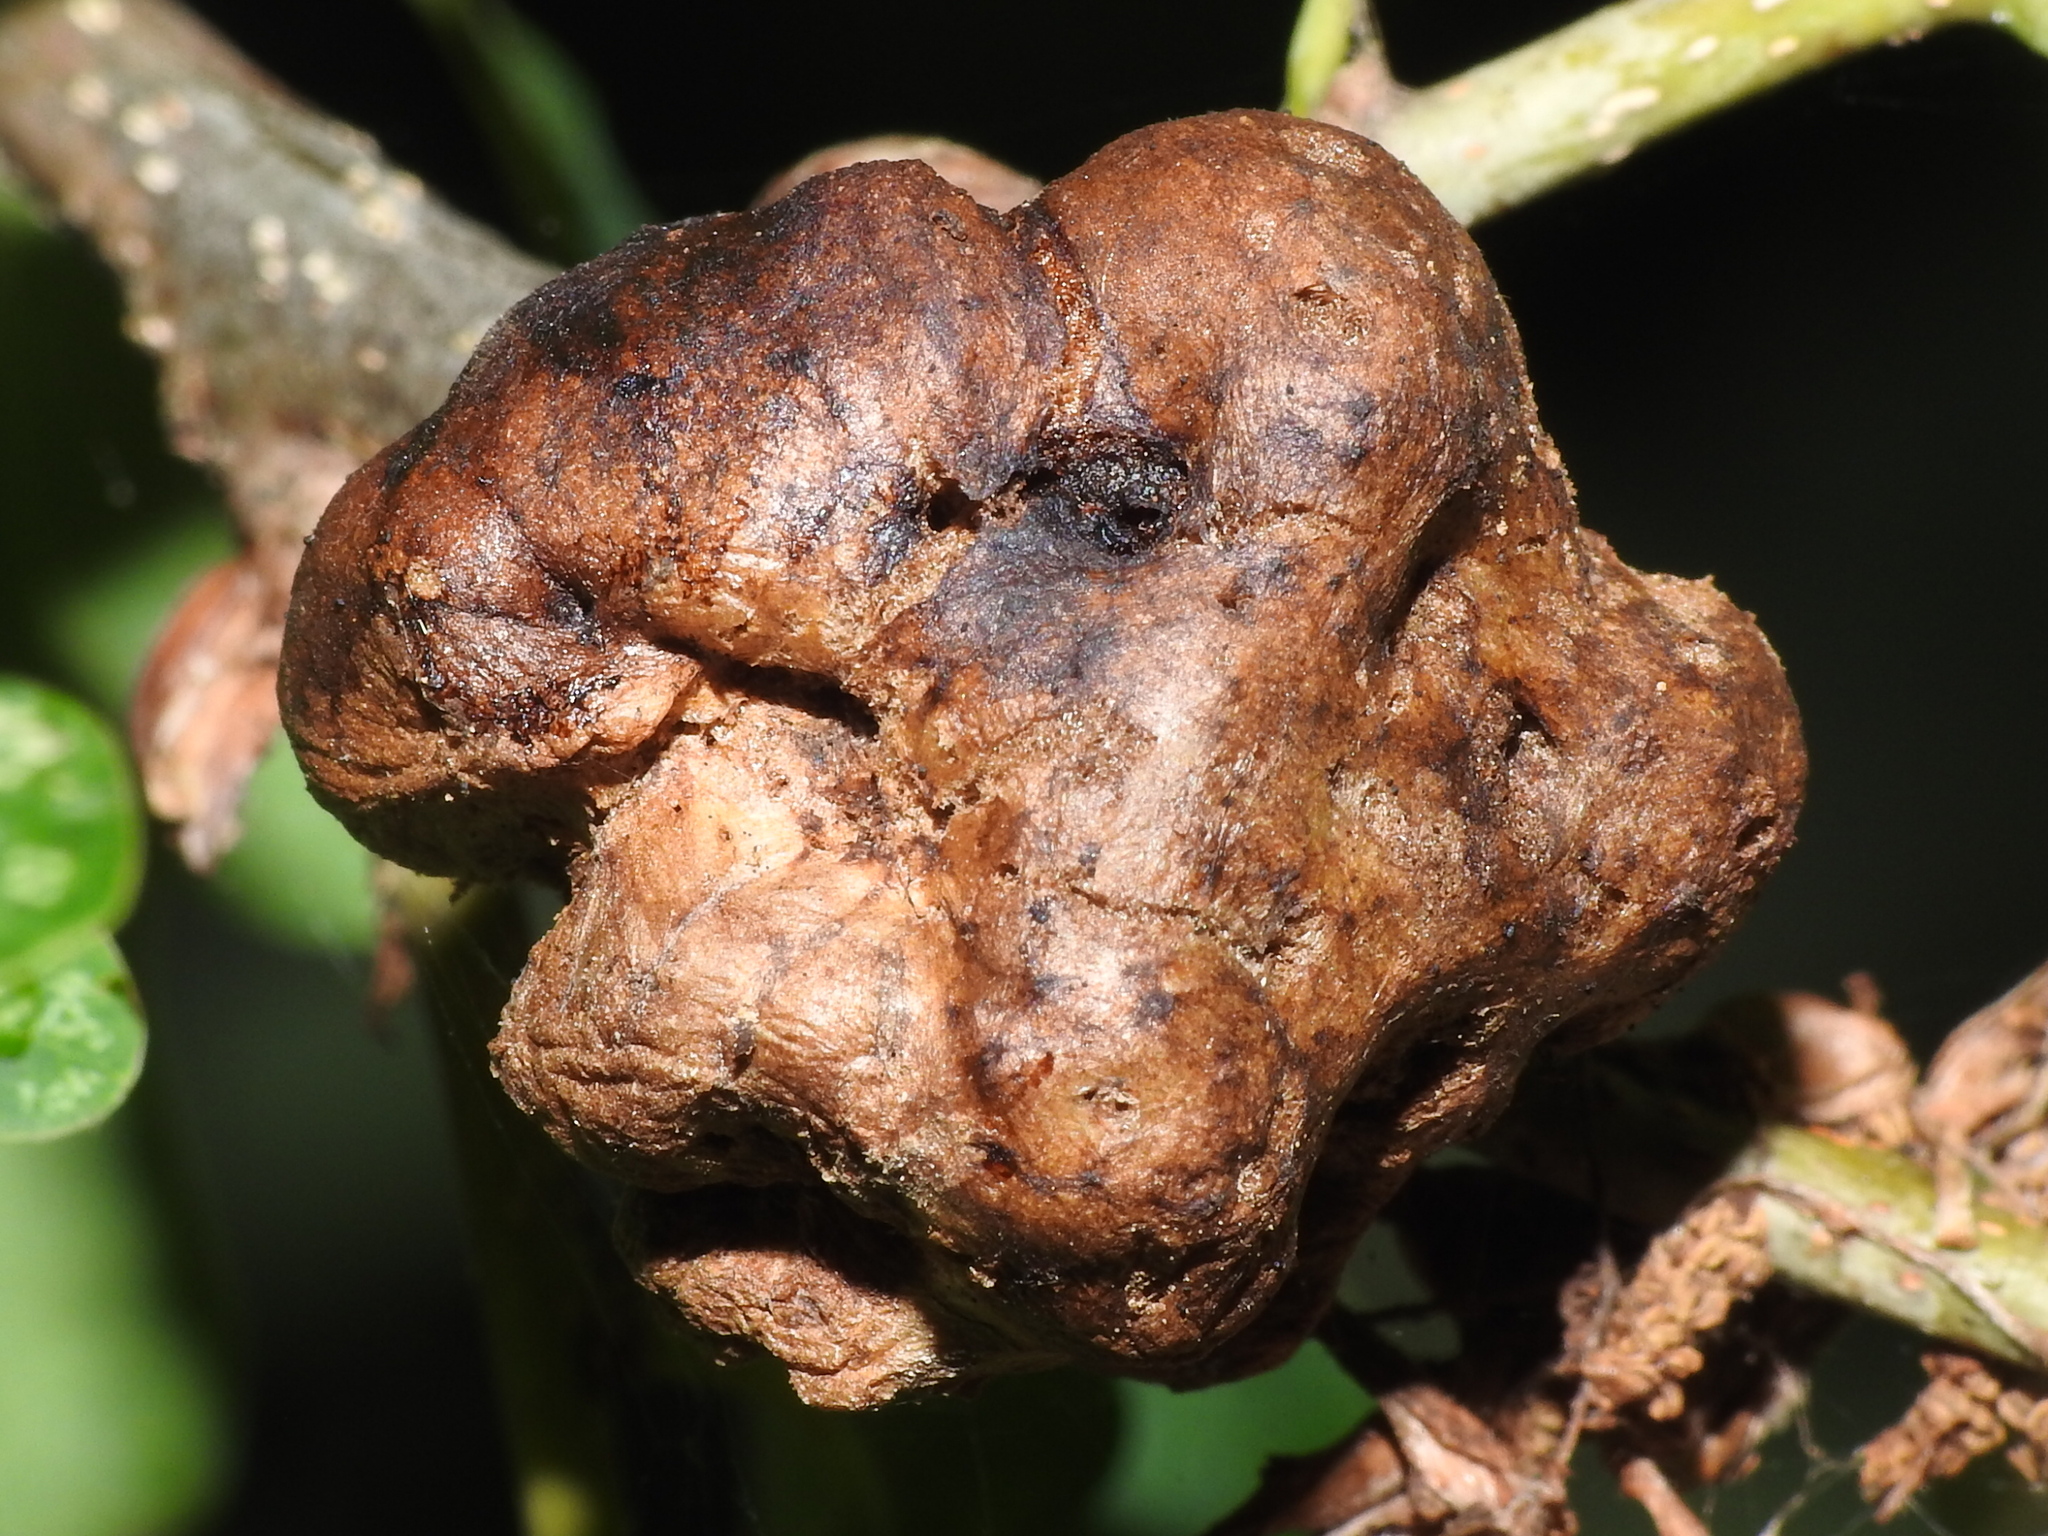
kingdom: Animalia
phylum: Arthropoda
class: Insecta
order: Hymenoptera
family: Cynipidae
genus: Biorhiza
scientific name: Biorhiza pallida
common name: Oak apple
